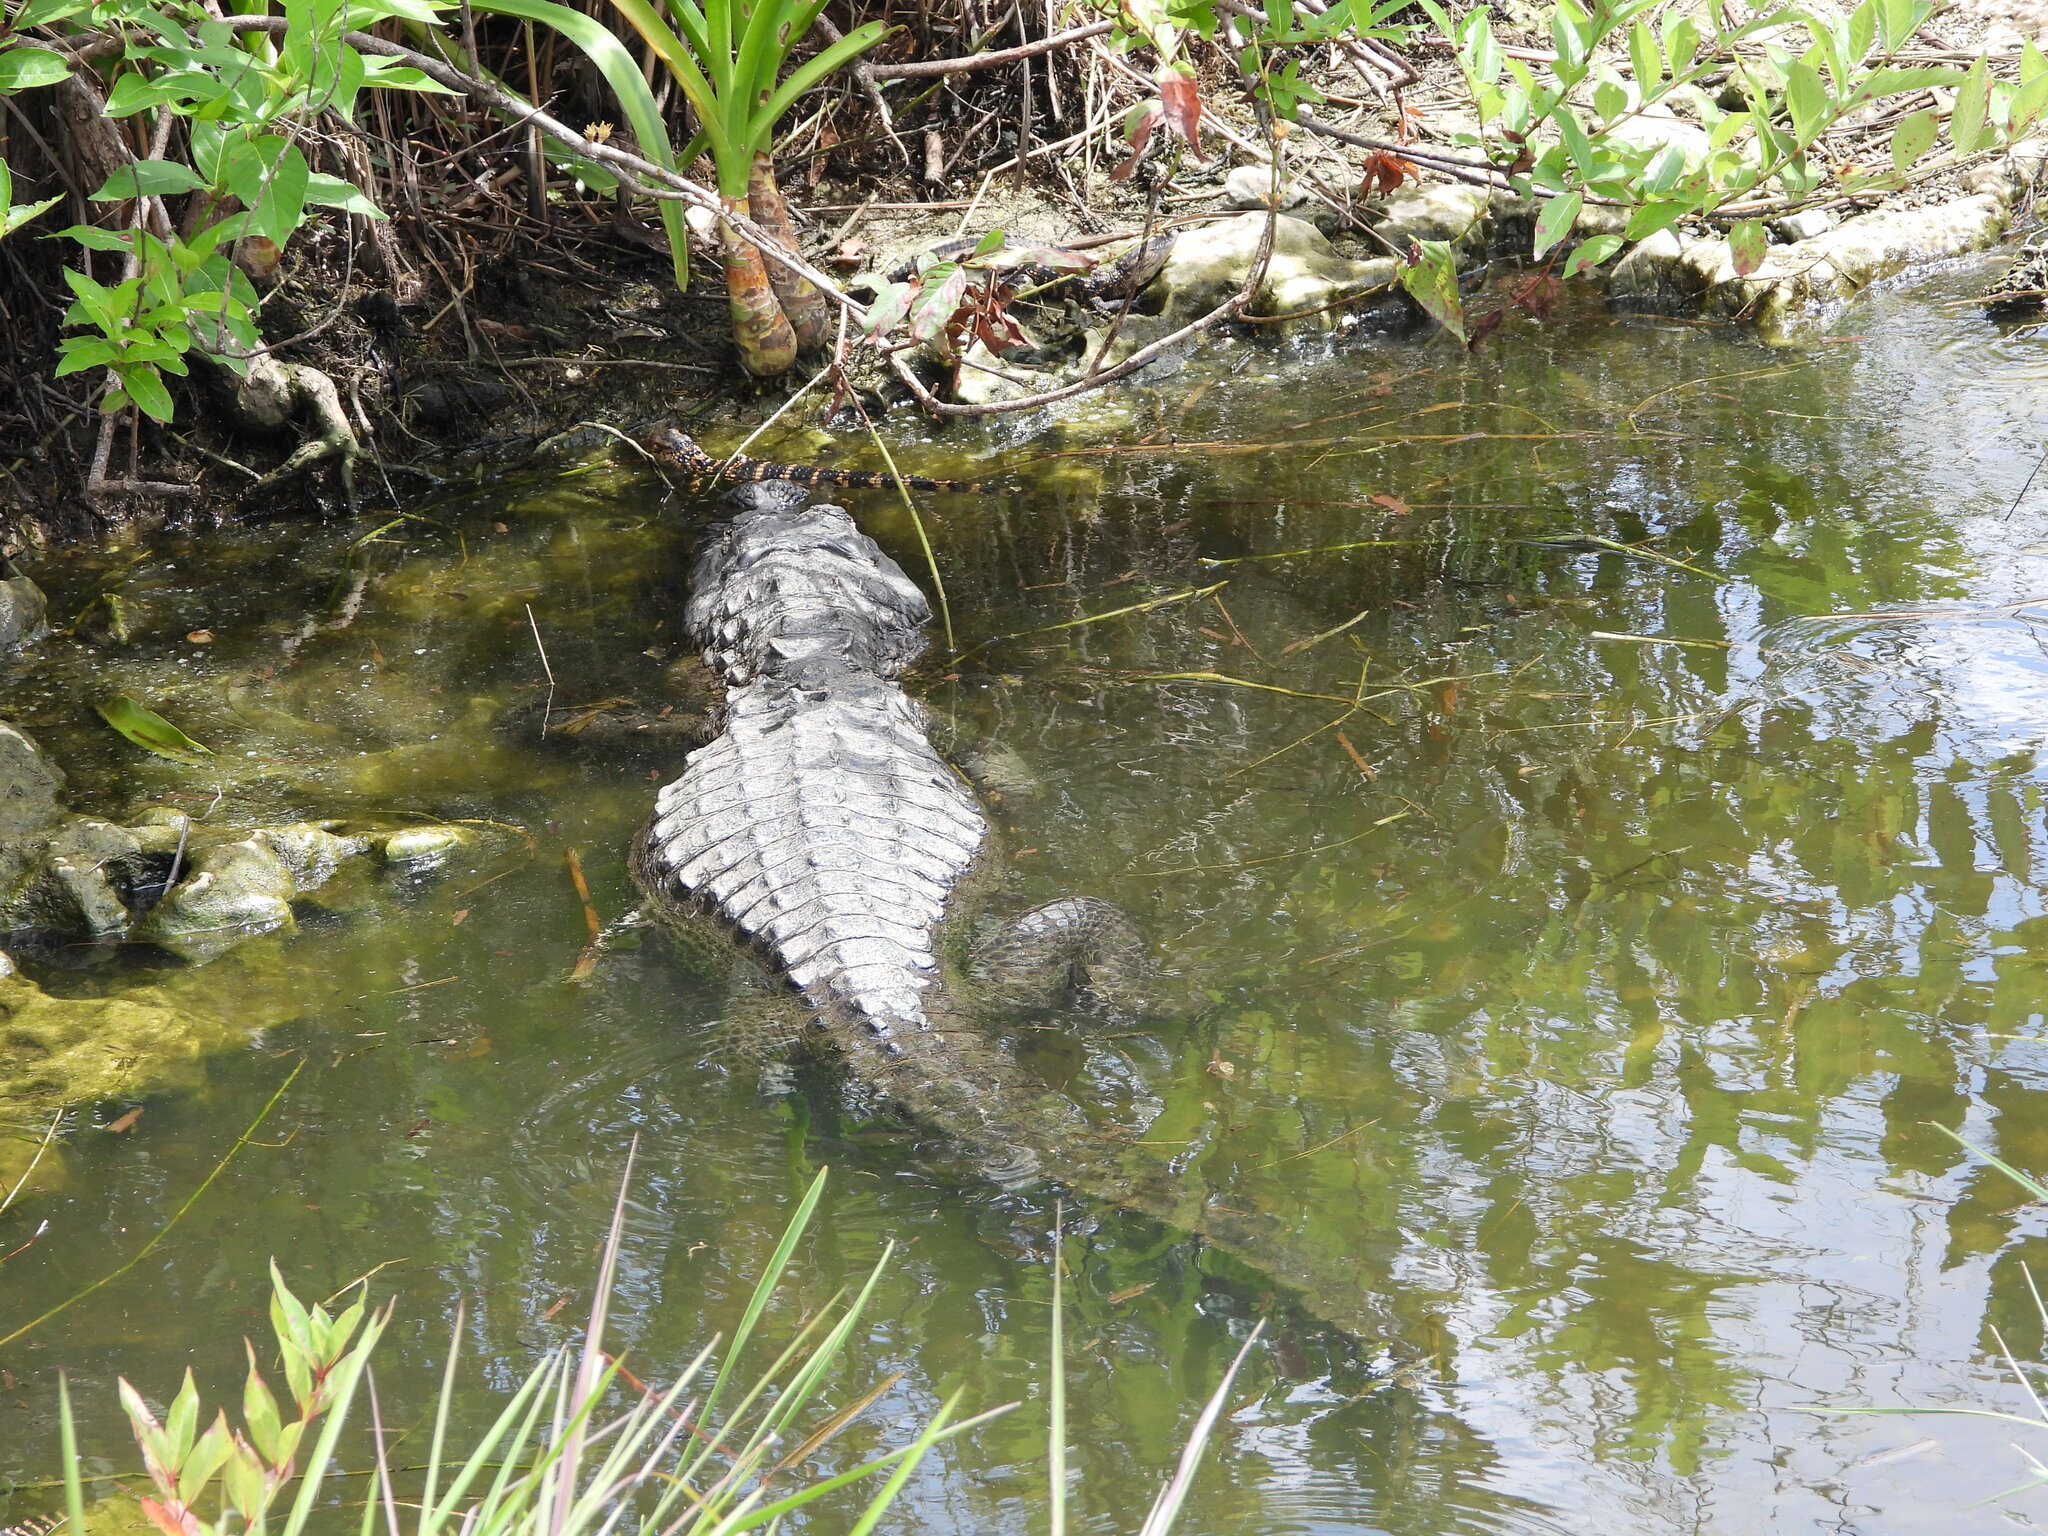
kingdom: Animalia
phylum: Chordata
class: Crocodylia
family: Alligatoridae
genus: Alligator
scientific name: Alligator mississippiensis
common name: American alligator
